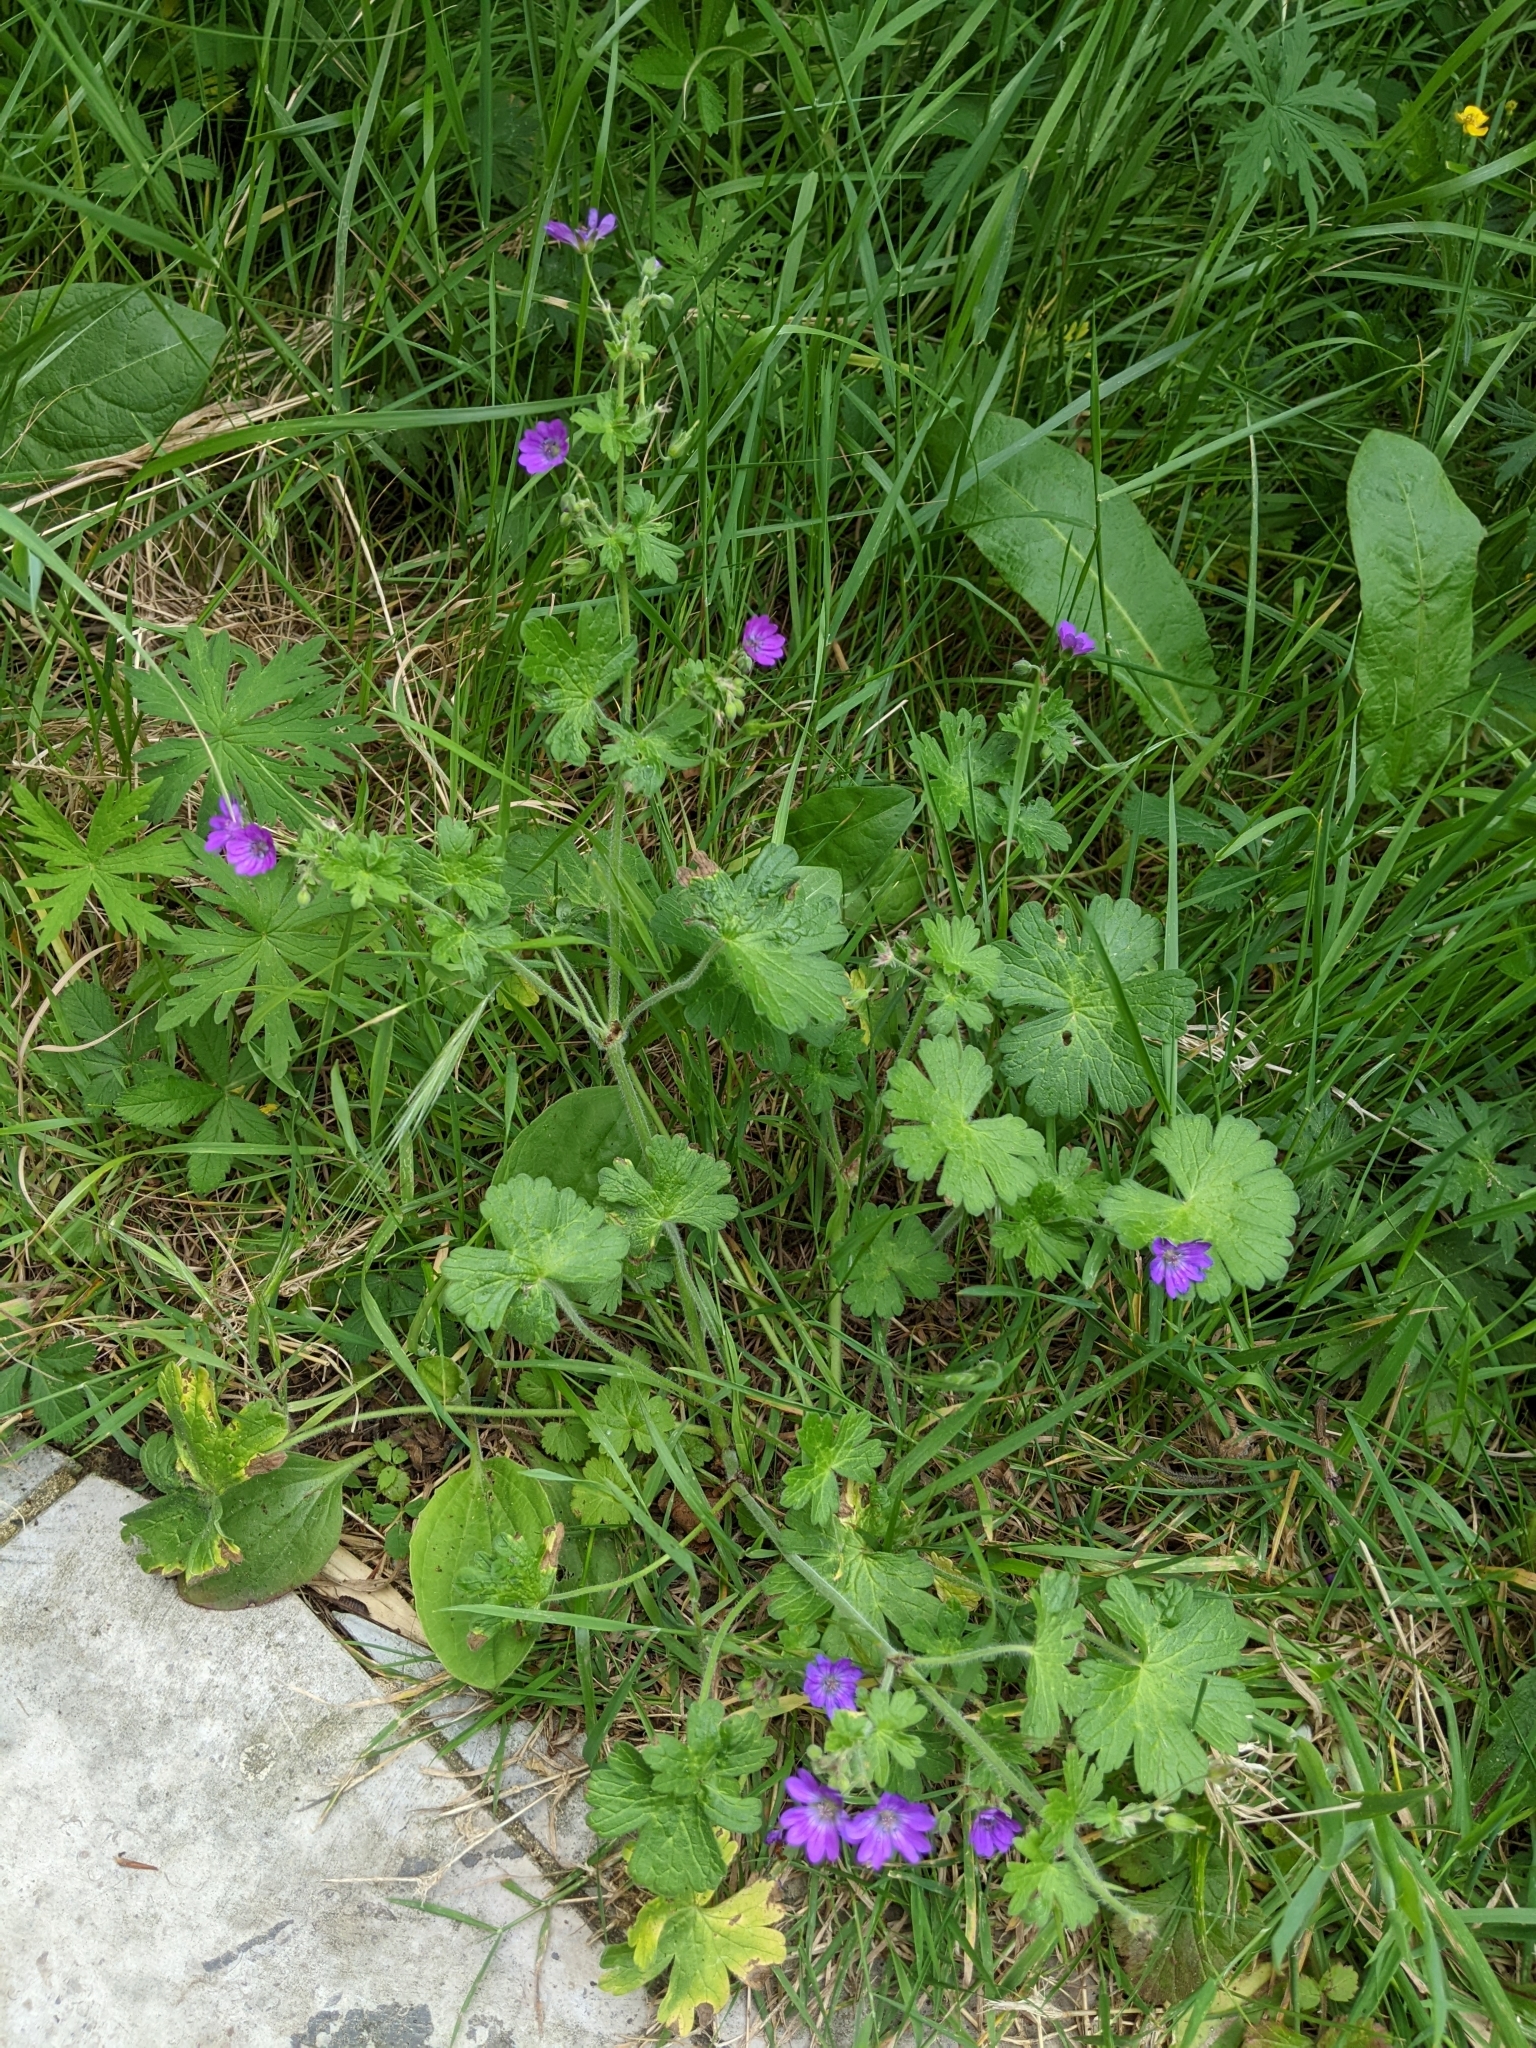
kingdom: Plantae
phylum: Tracheophyta
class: Magnoliopsida
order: Geraniales
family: Geraniaceae
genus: Geranium
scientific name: Geranium pyrenaicum
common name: Hedgerow crane's-bill
